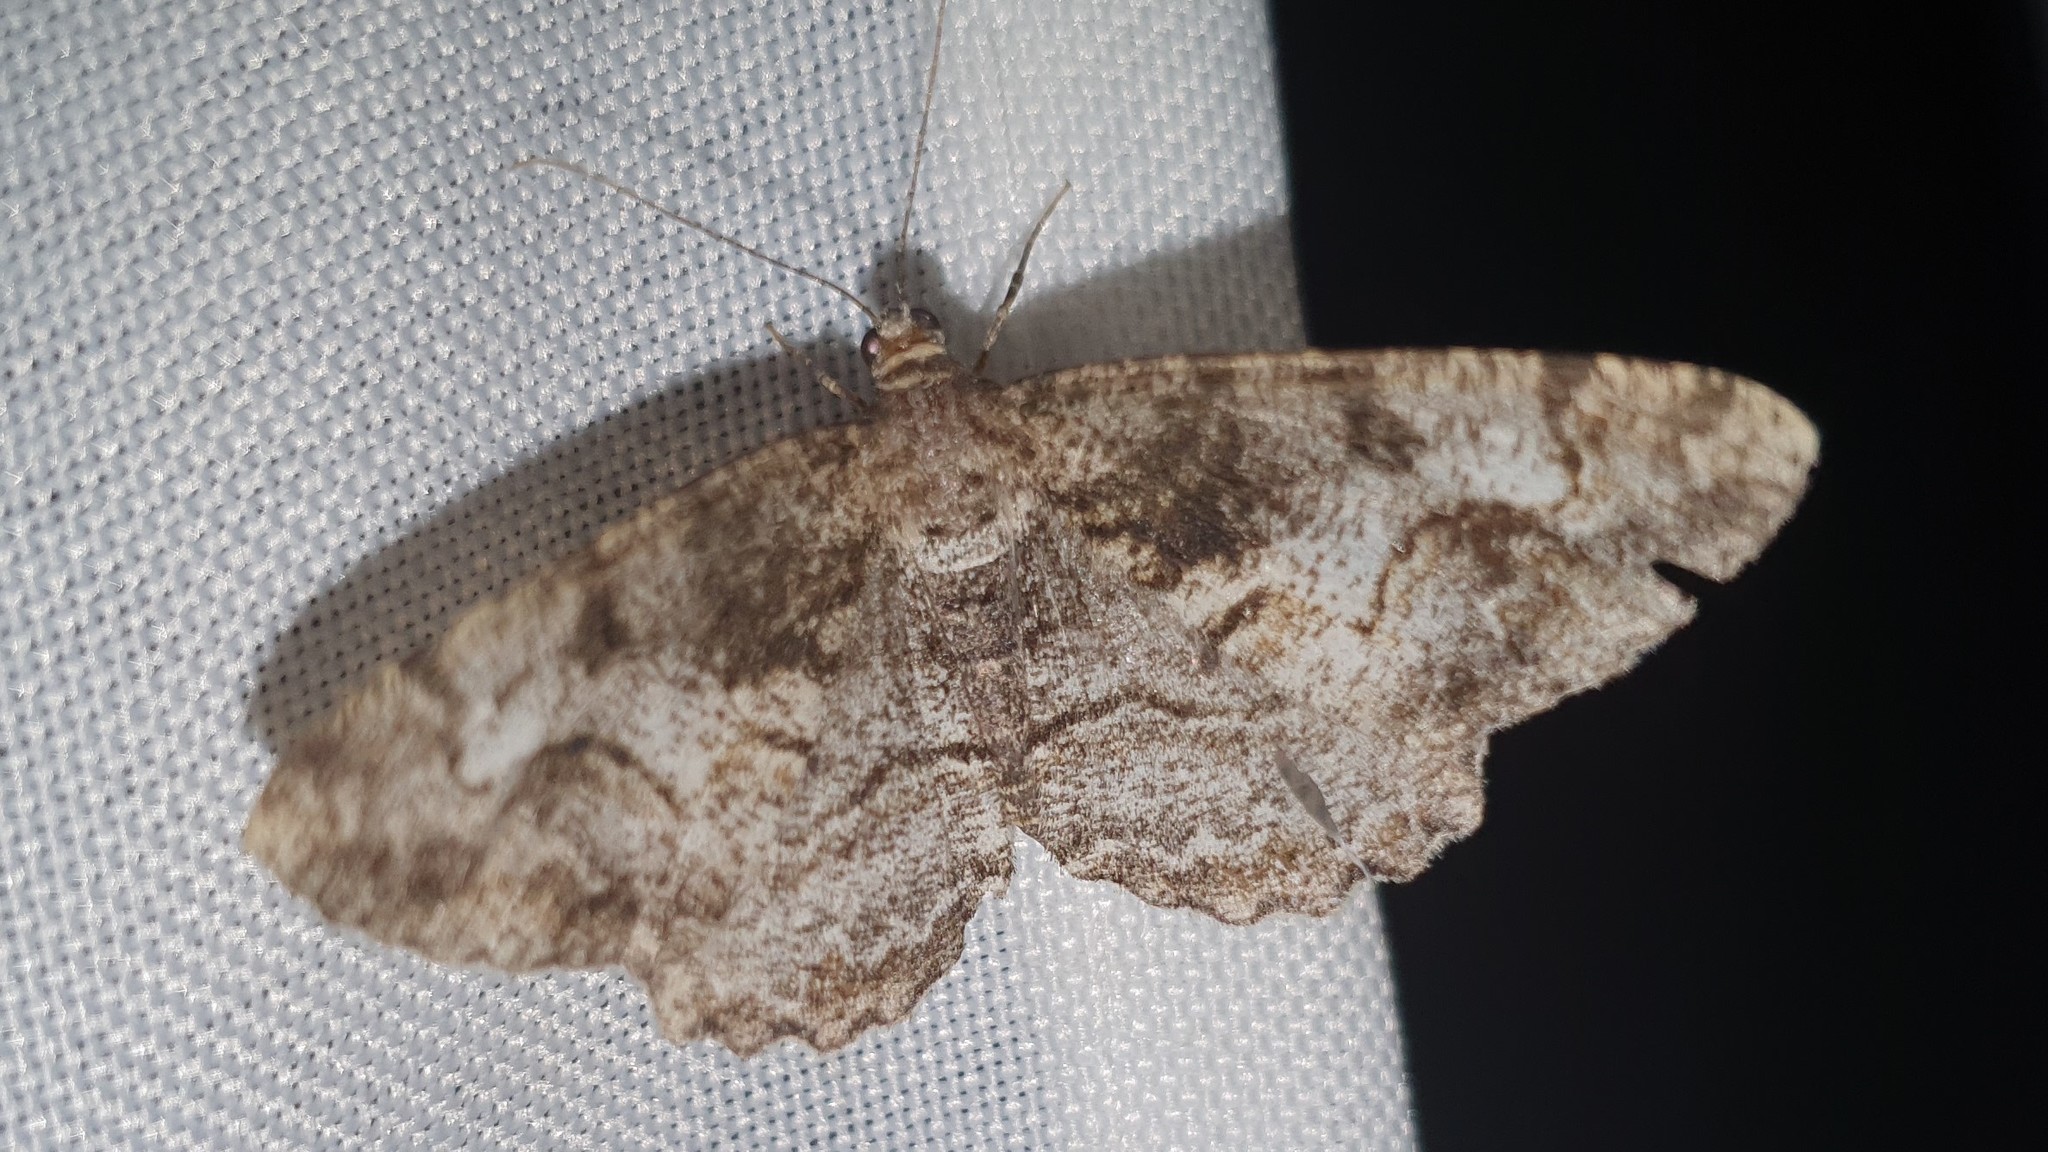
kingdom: Animalia
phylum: Arthropoda
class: Insecta
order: Lepidoptera
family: Geometridae
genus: Alcis
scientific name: Alcis repandata
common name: Mottled beauty
